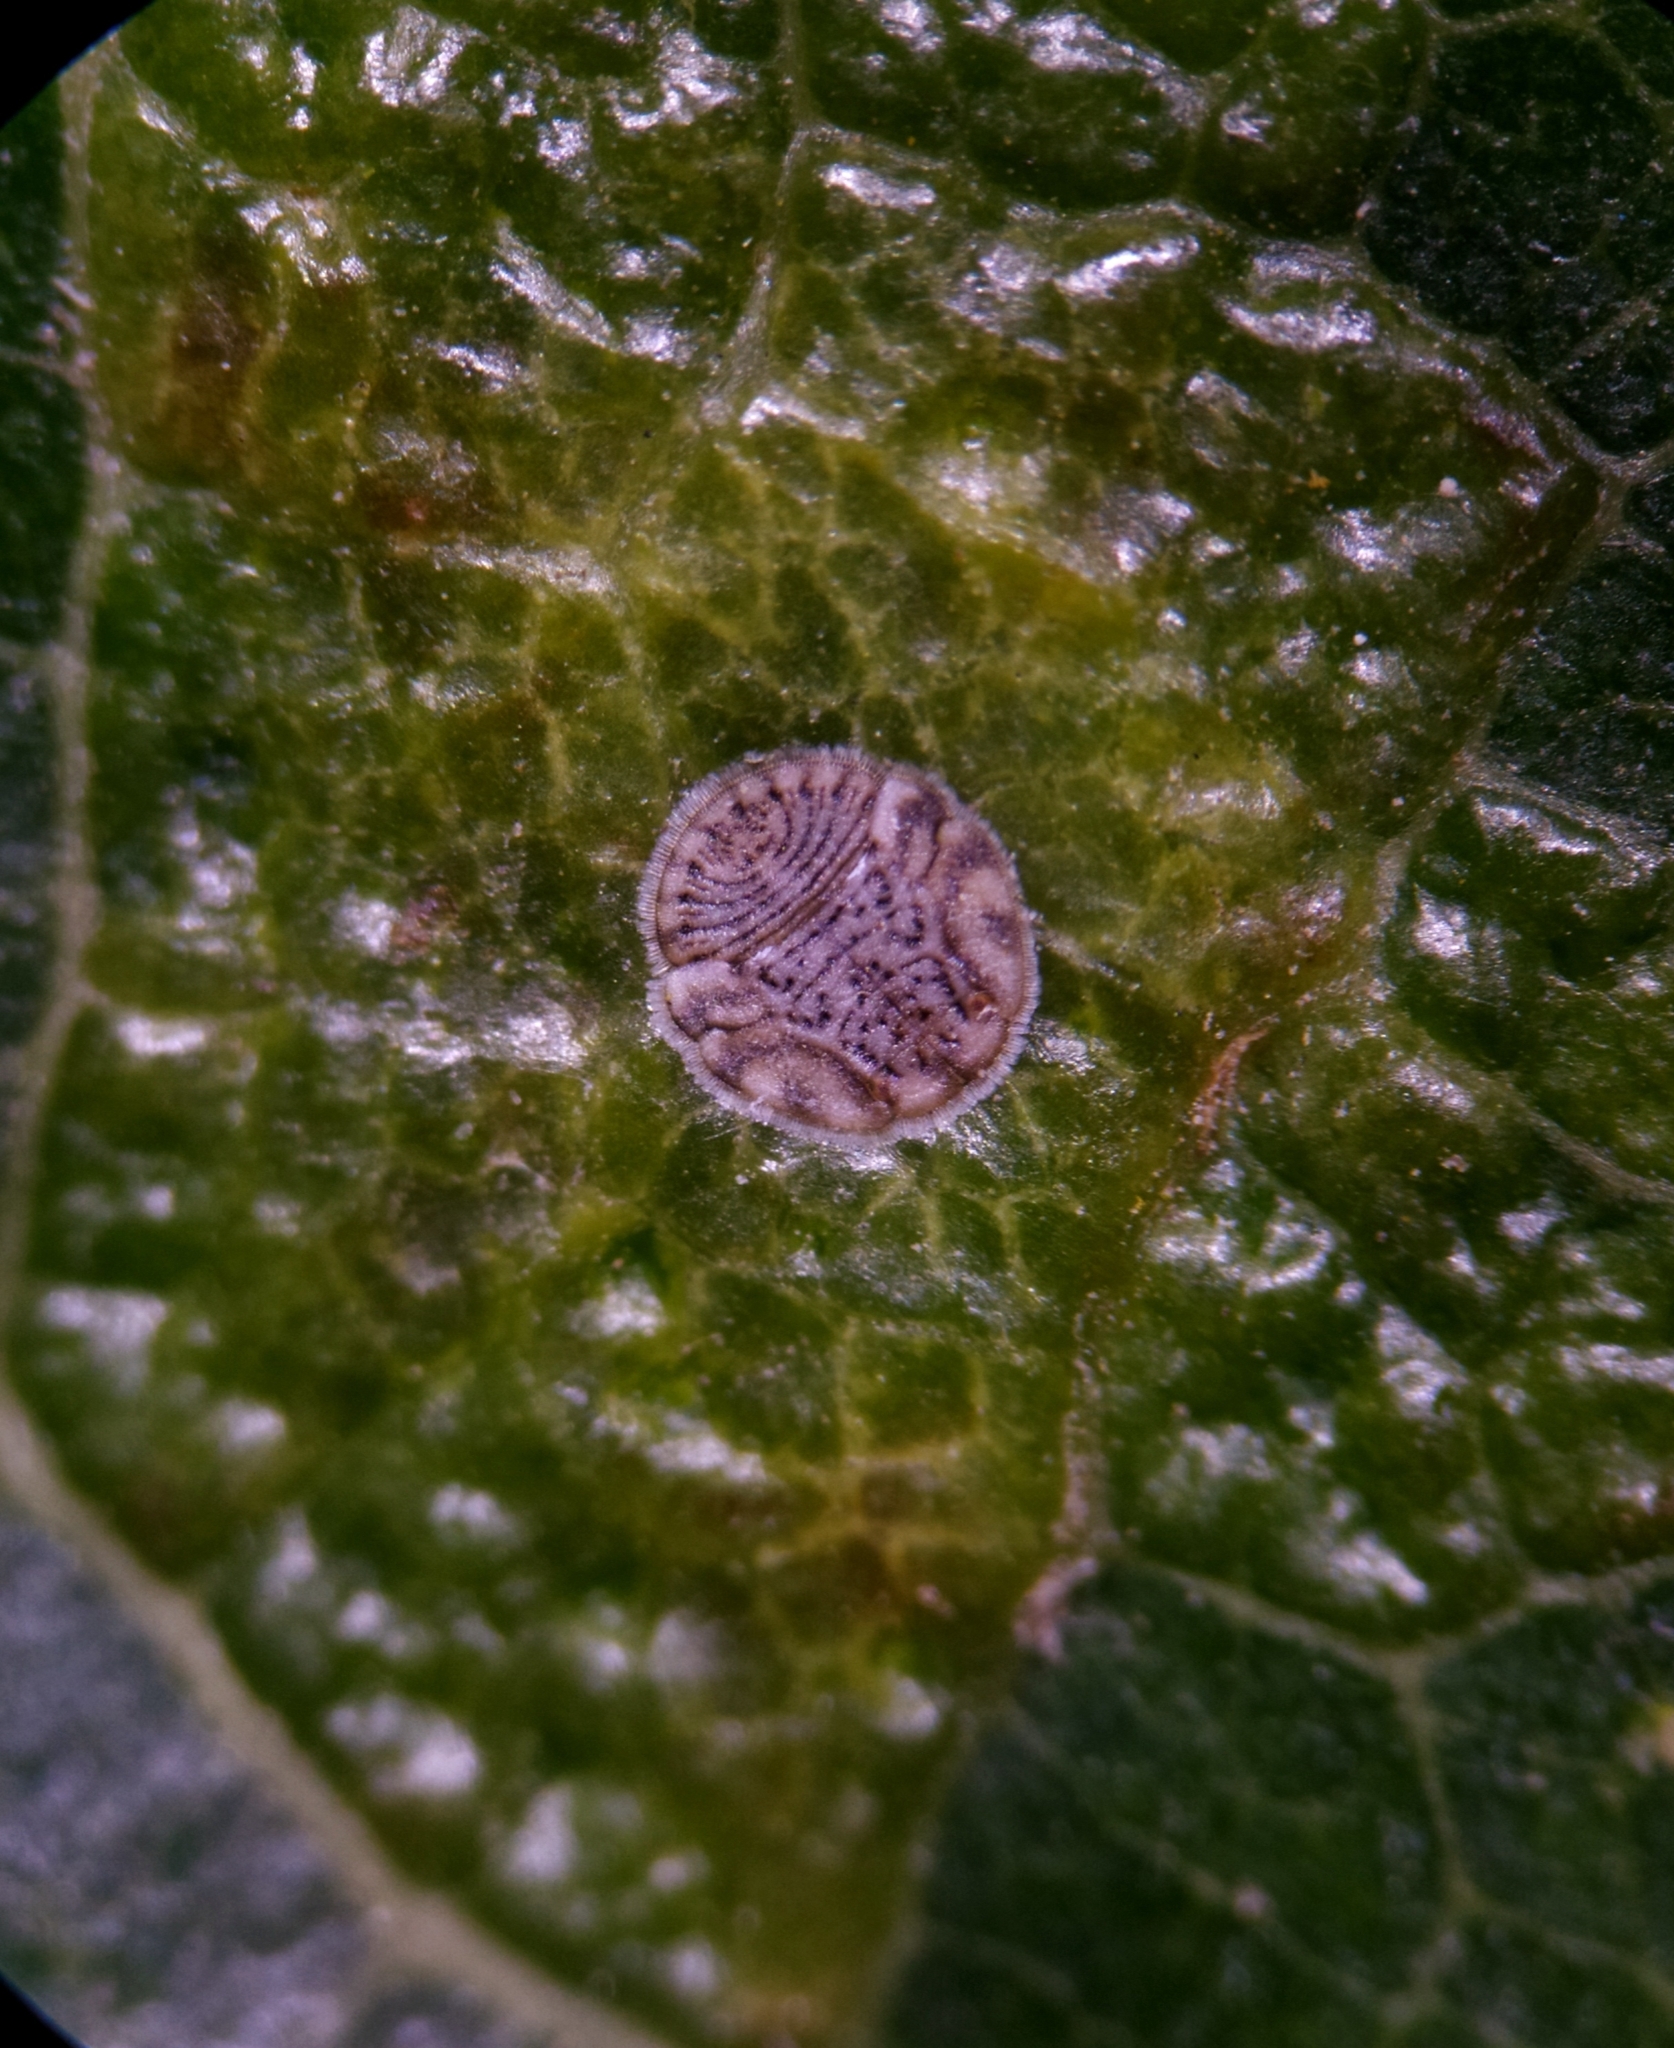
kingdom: Animalia
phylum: Arthropoda
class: Insecta
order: Hemiptera
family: Triozidae
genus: Egeirotrioza
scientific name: Egeirotrioza populi
